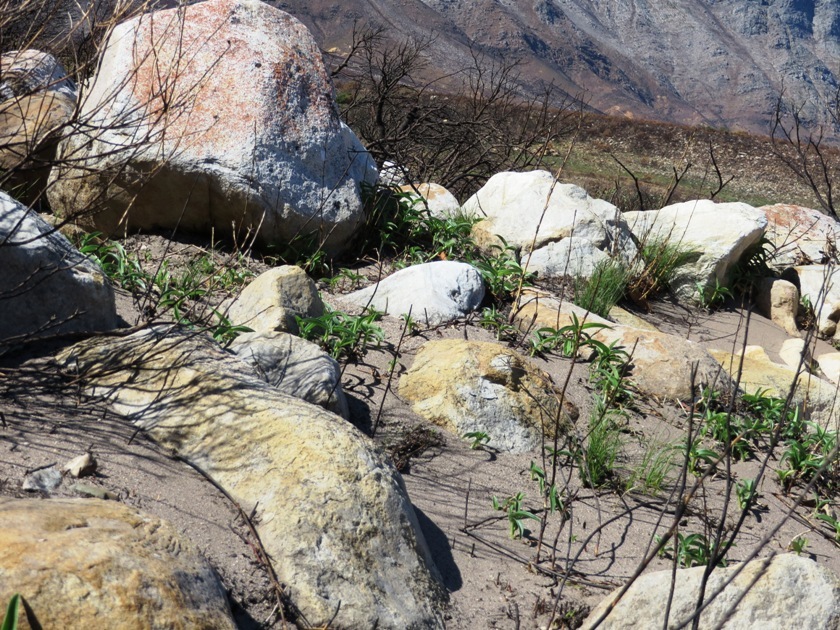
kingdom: Plantae
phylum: Tracheophyta
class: Liliopsida
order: Commelinales
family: Commelinaceae
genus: Commelina
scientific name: Commelina africana
